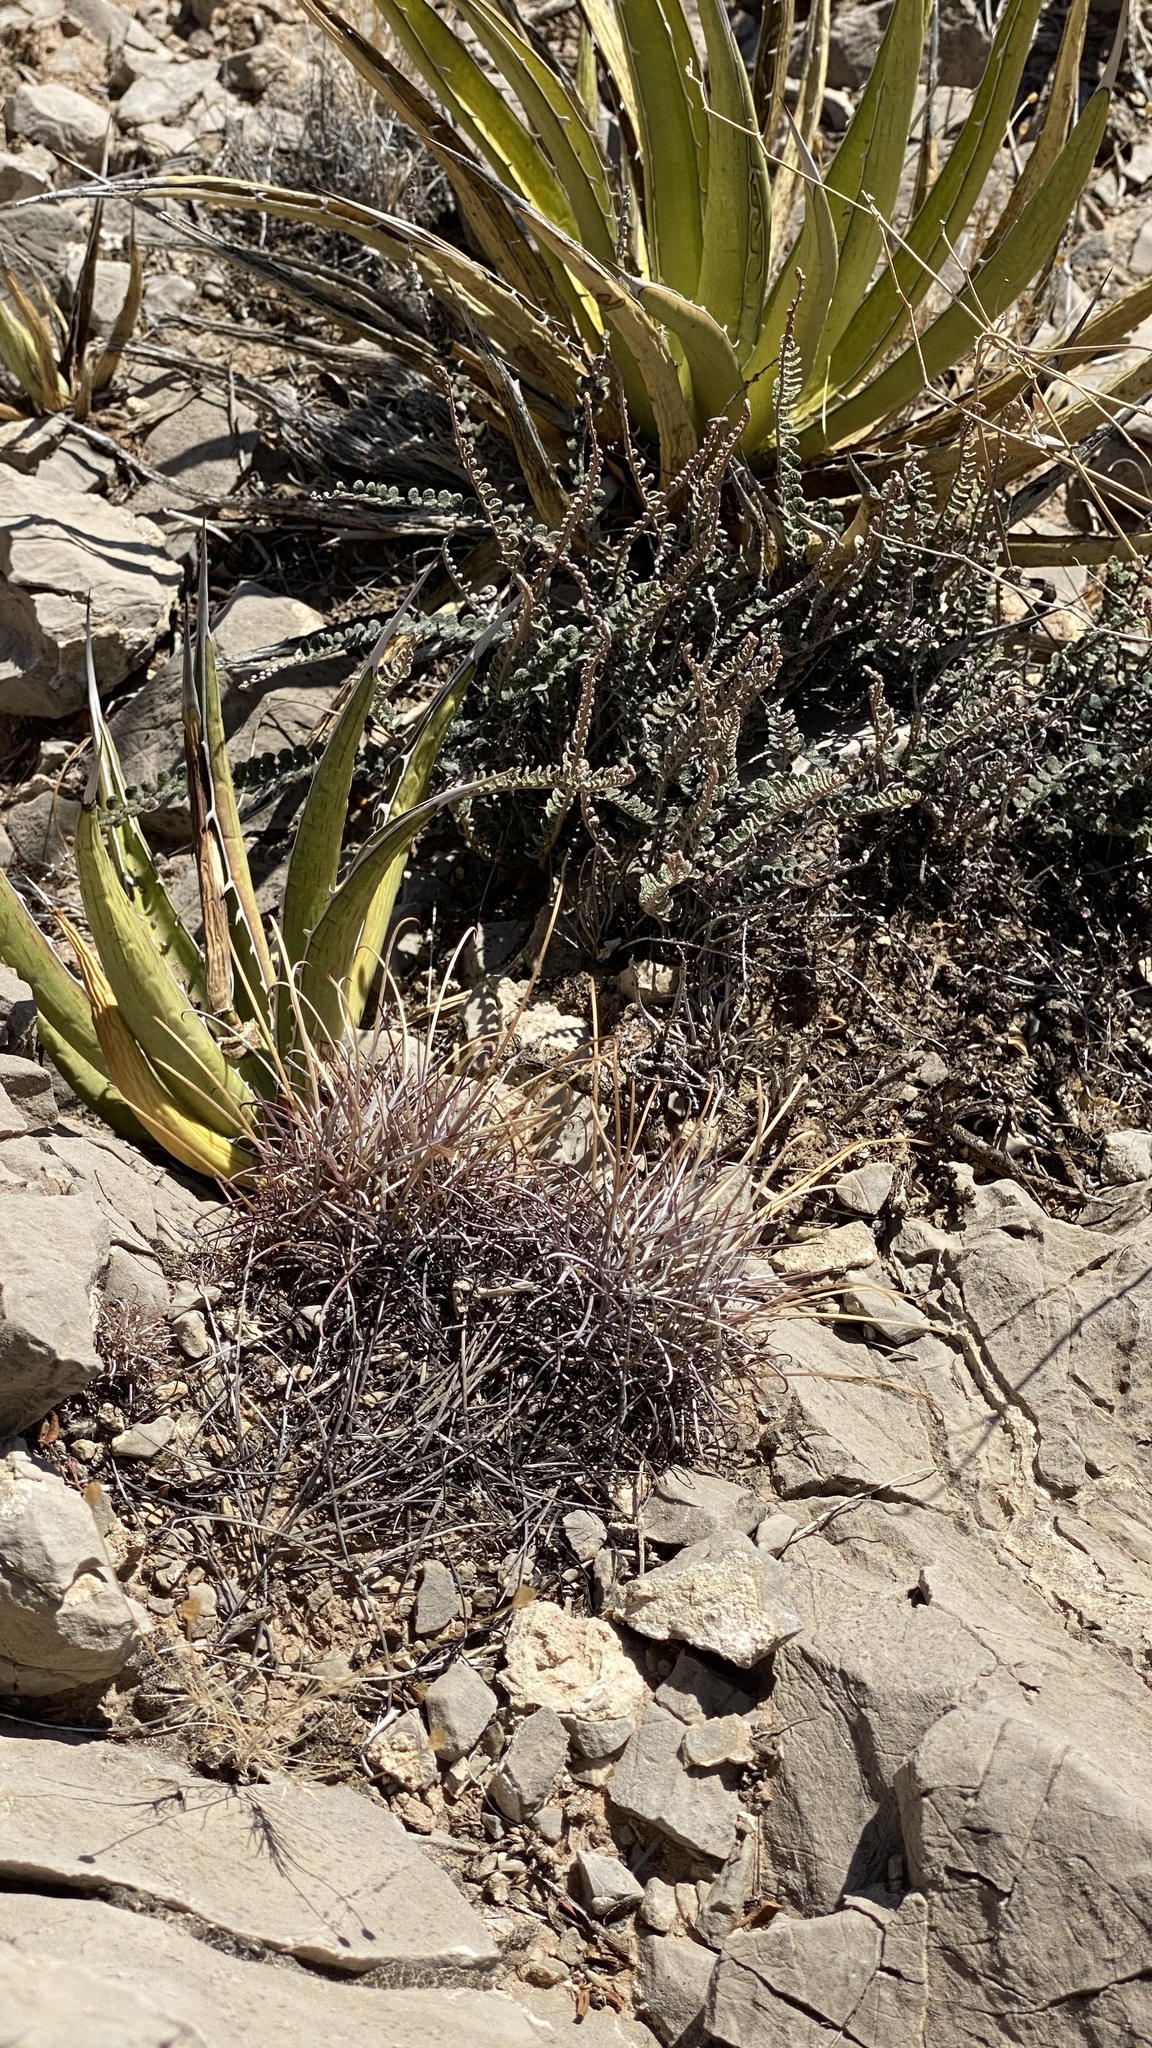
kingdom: Plantae
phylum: Tracheophyta
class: Magnoliopsida
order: Caryophyllales
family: Cactaceae
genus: Ferocactus
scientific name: Ferocactus uncinatus
